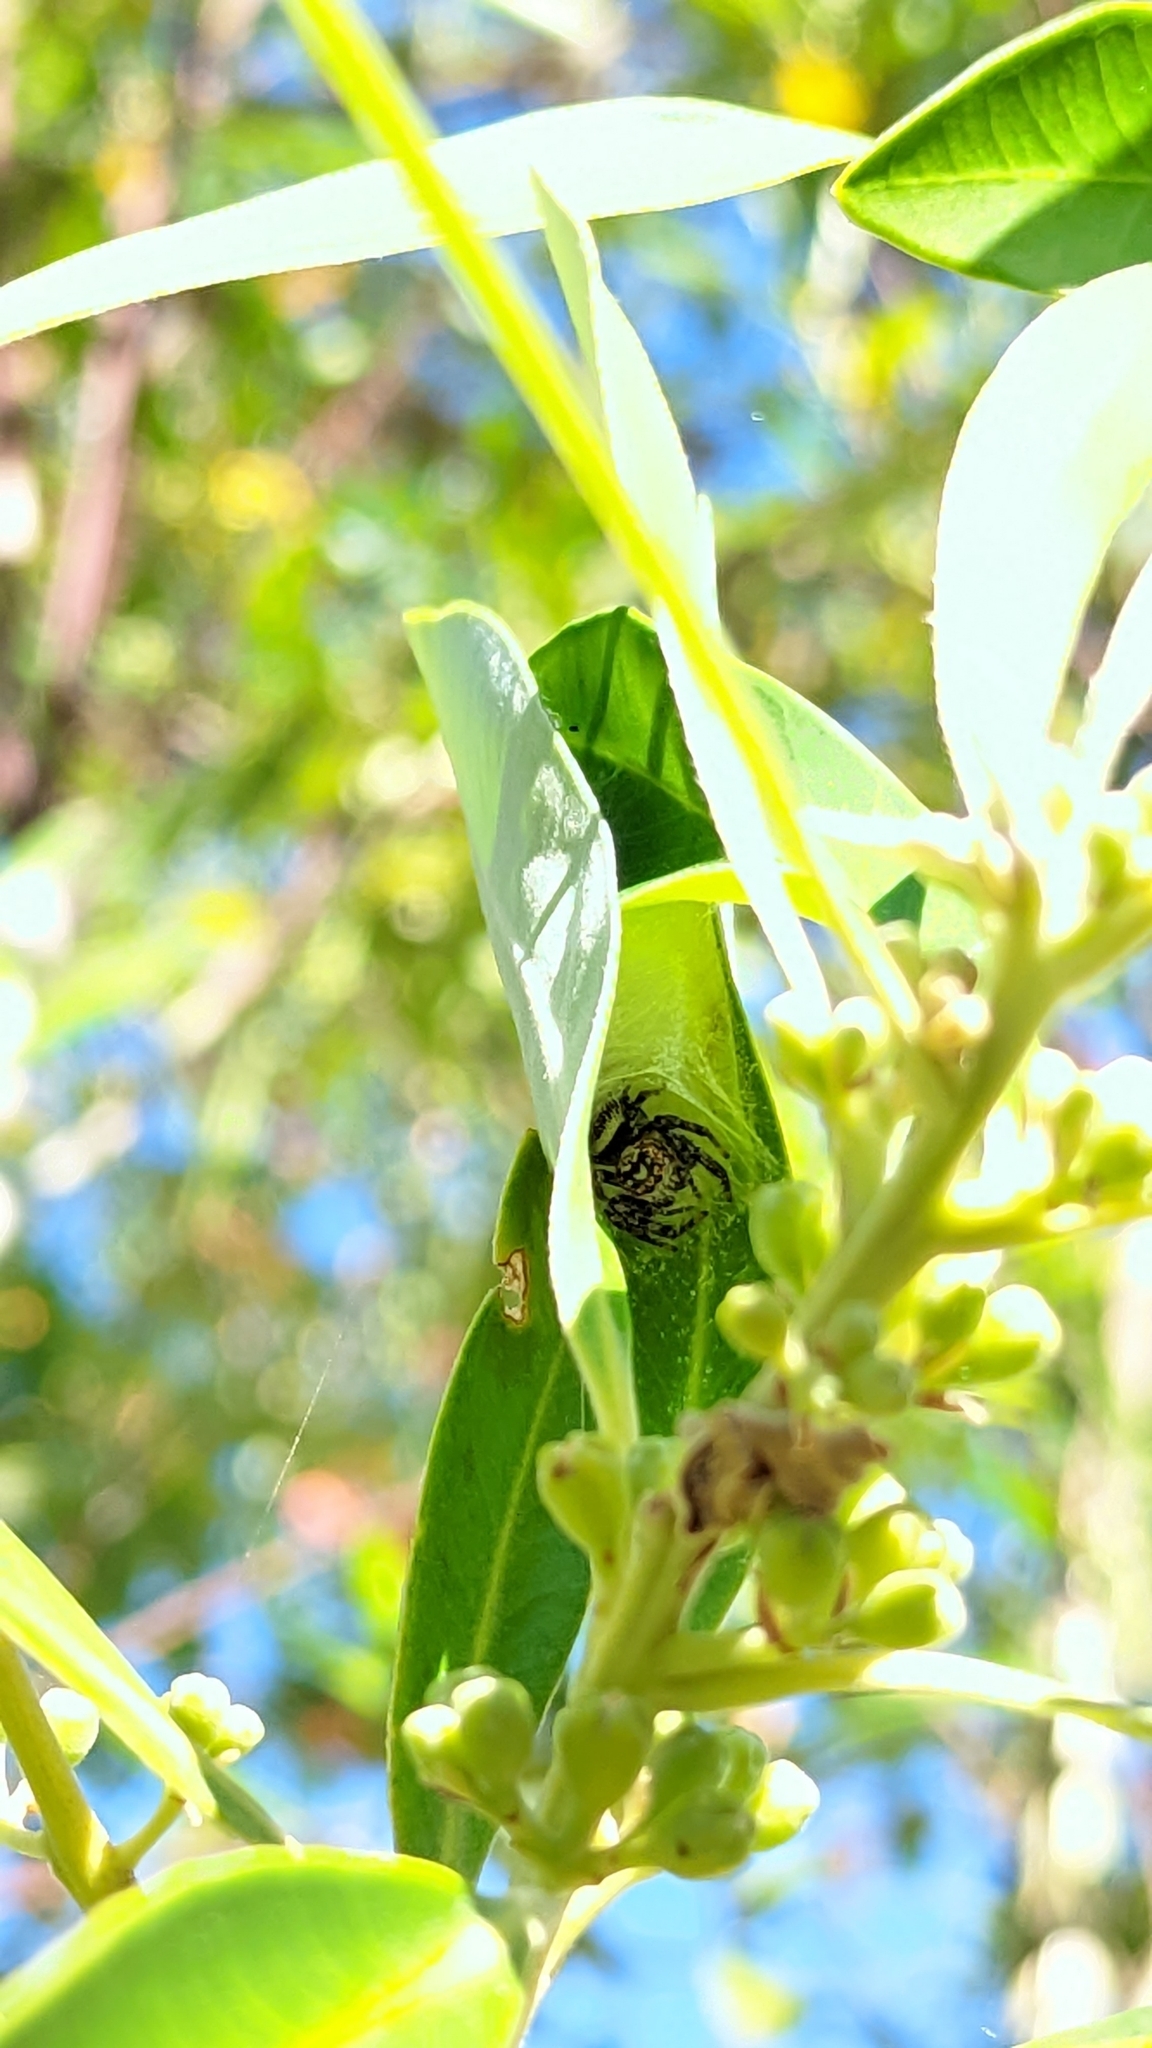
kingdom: Animalia
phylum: Arthropoda
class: Arachnida
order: Araneae
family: Salticidae
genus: Opisthoncus
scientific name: Opisthoncus quadratarius
